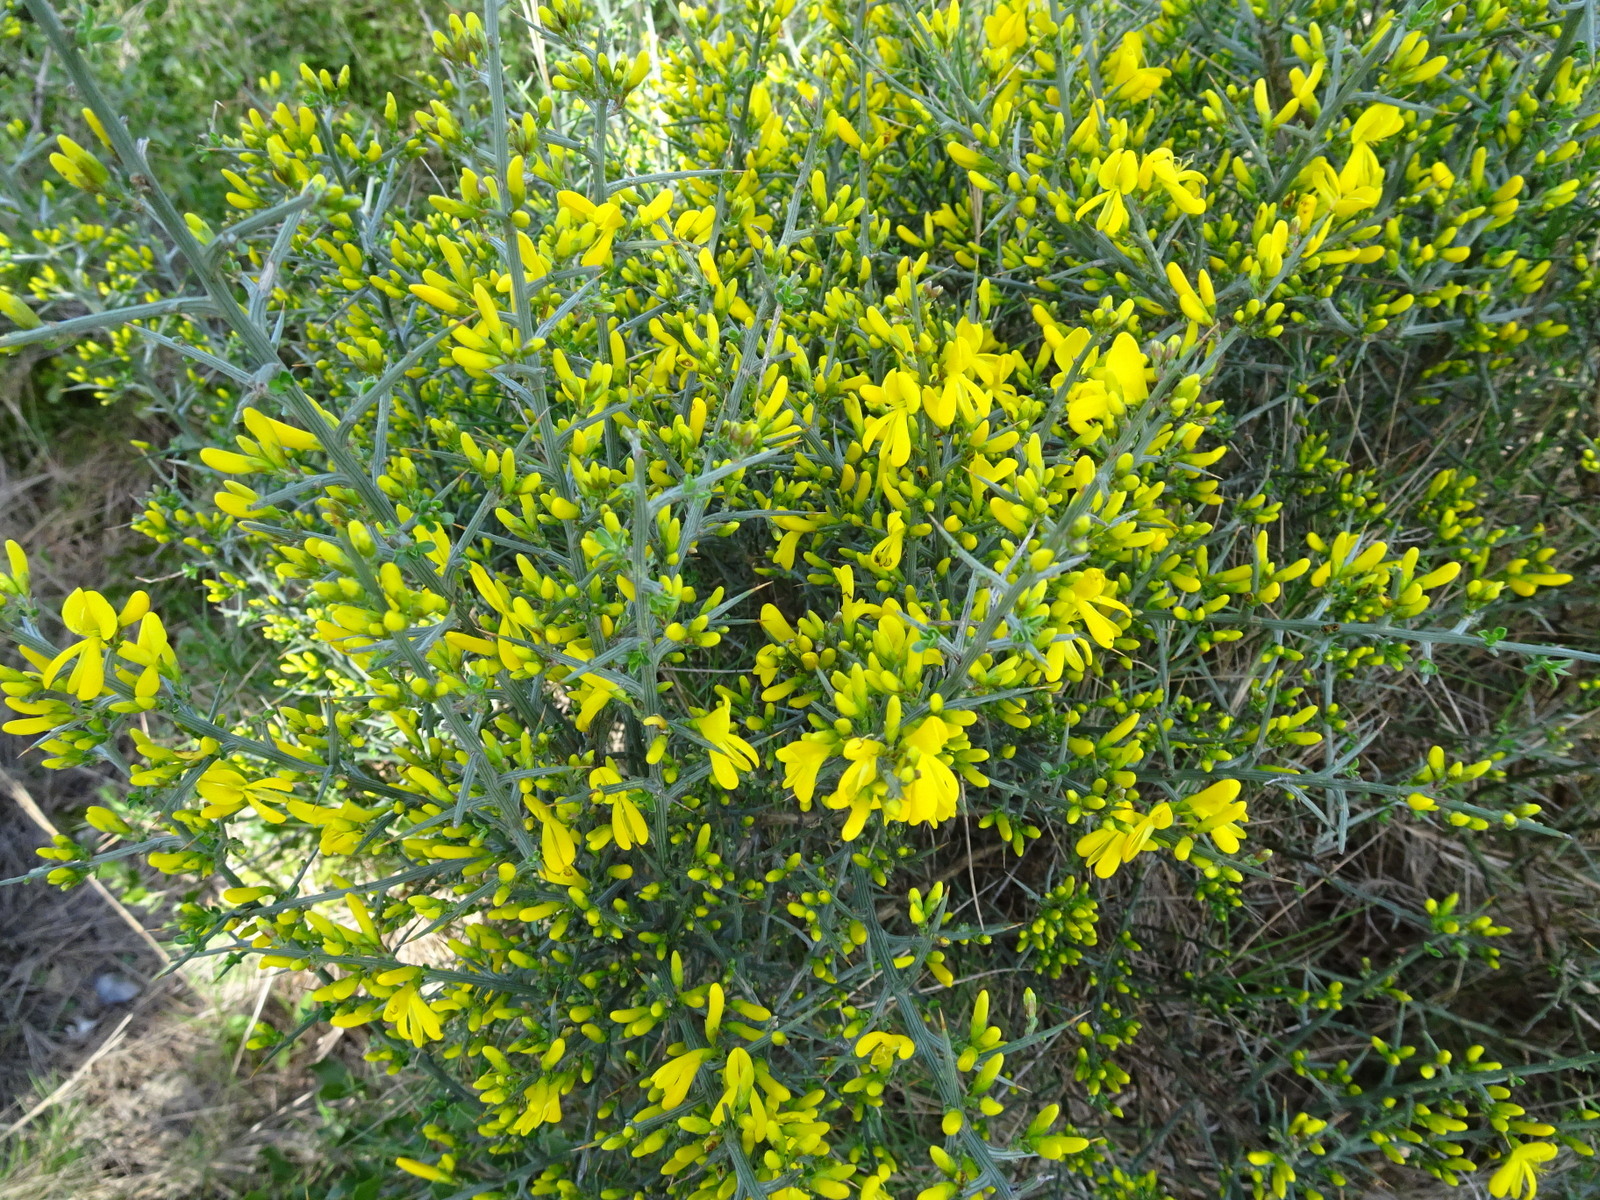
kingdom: Plantae
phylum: Tracheophyta
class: Magnoliopsida
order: Fabales
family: Fabaceae
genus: Genista
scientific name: Genista scorpius
